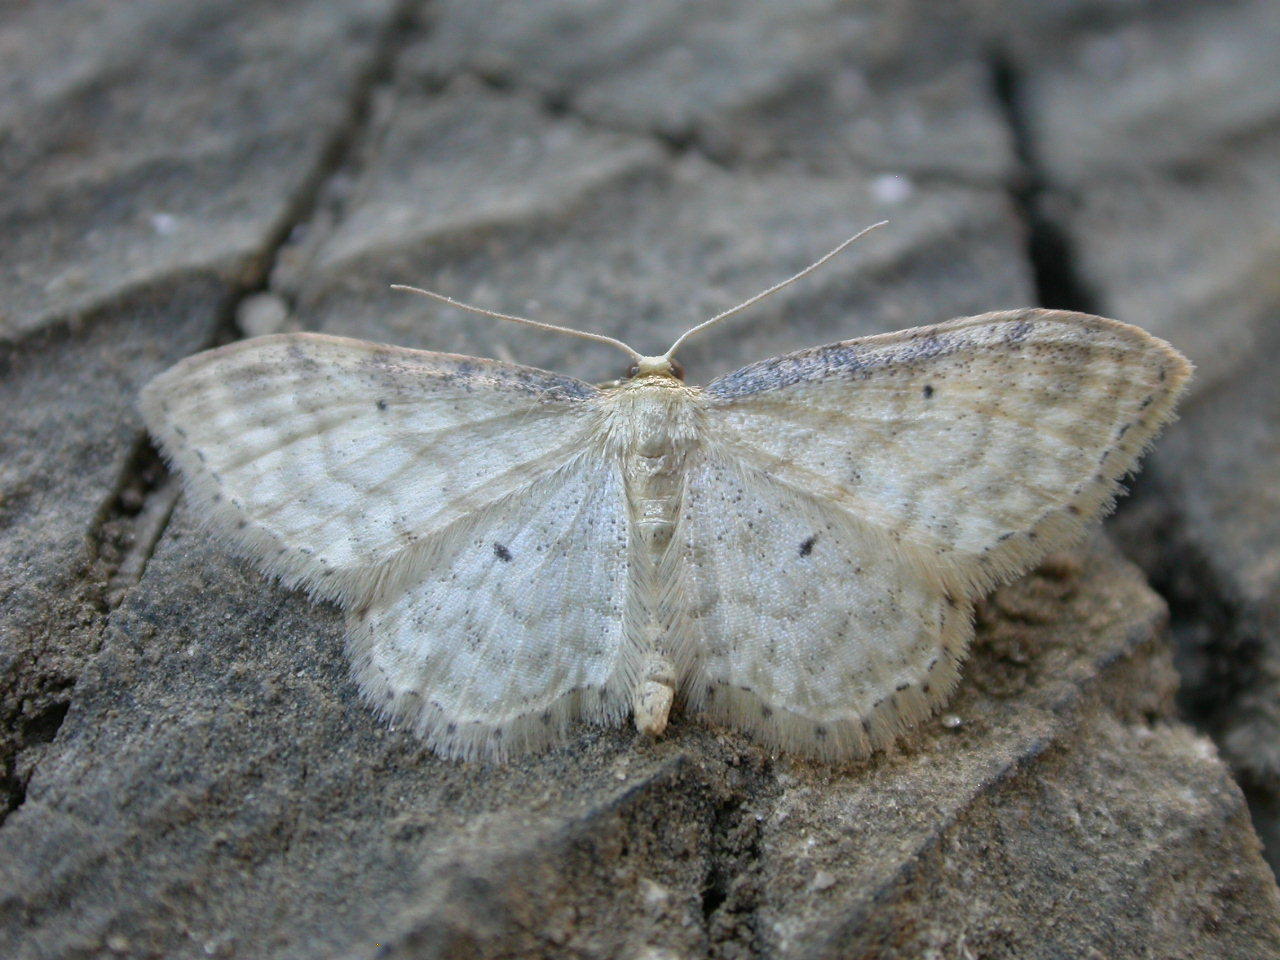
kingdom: Animalia
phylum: Arthropoda
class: Insecta
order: Lepidoptera
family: Geometridae
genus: Idaea
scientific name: Idaea fuscovenosa
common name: Dwarf cream wave
